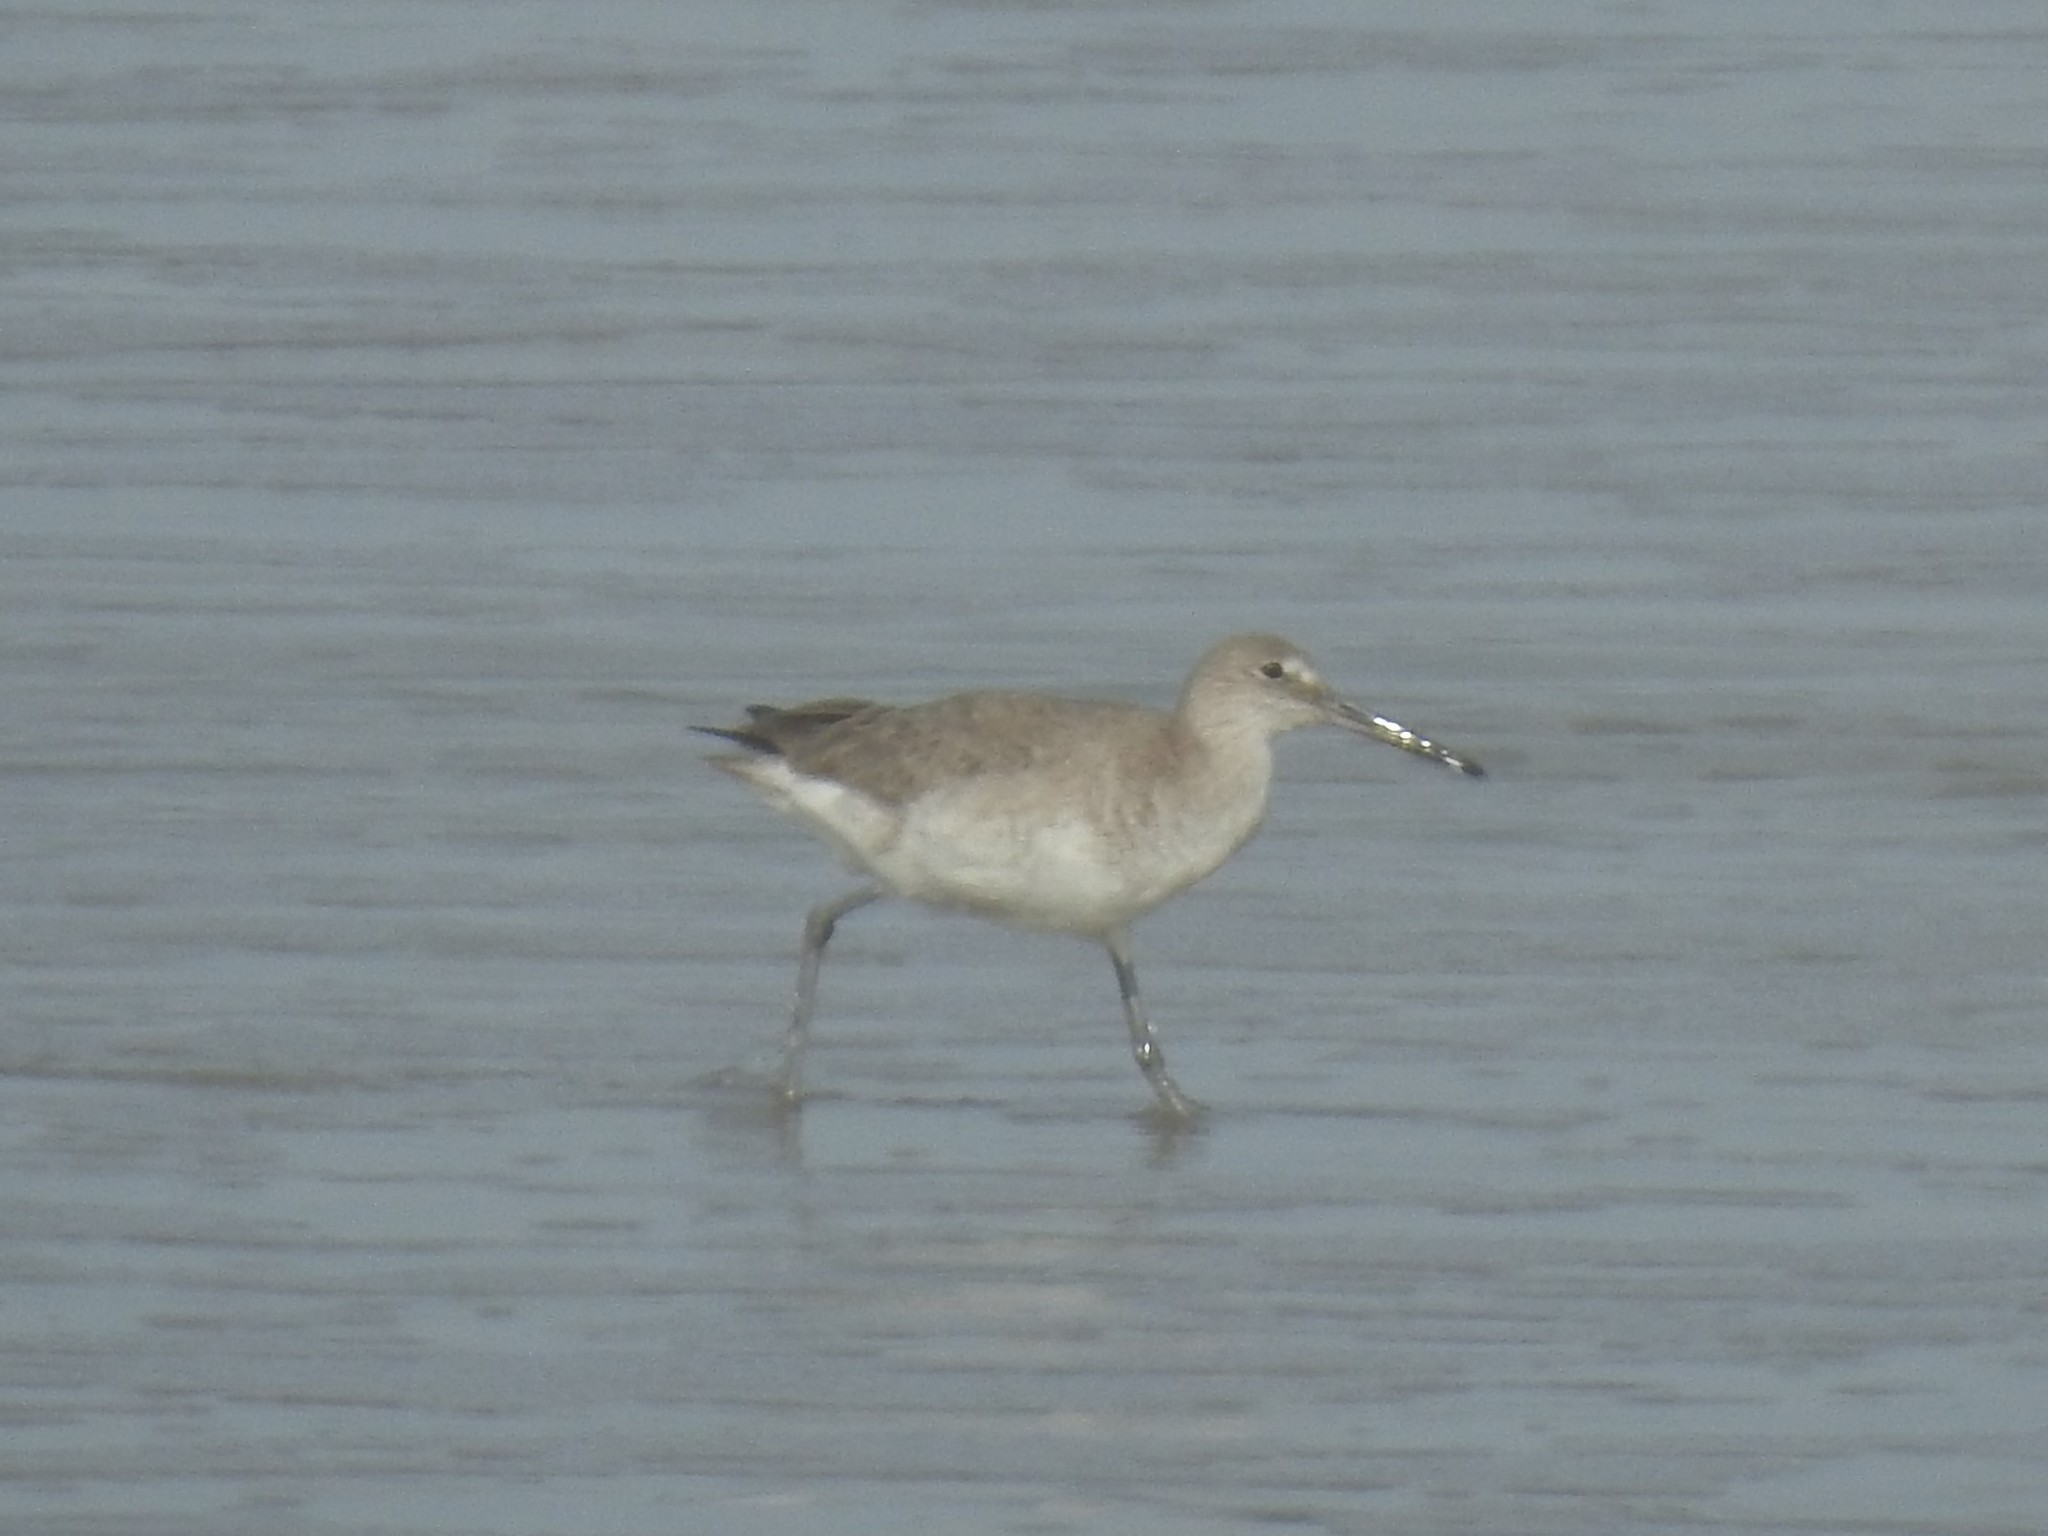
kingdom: Animalia
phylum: Chordata
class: Aves
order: Charadriiformes
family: Scolopacidae
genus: Tringa
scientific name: Tringa semipalmata
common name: Willet
